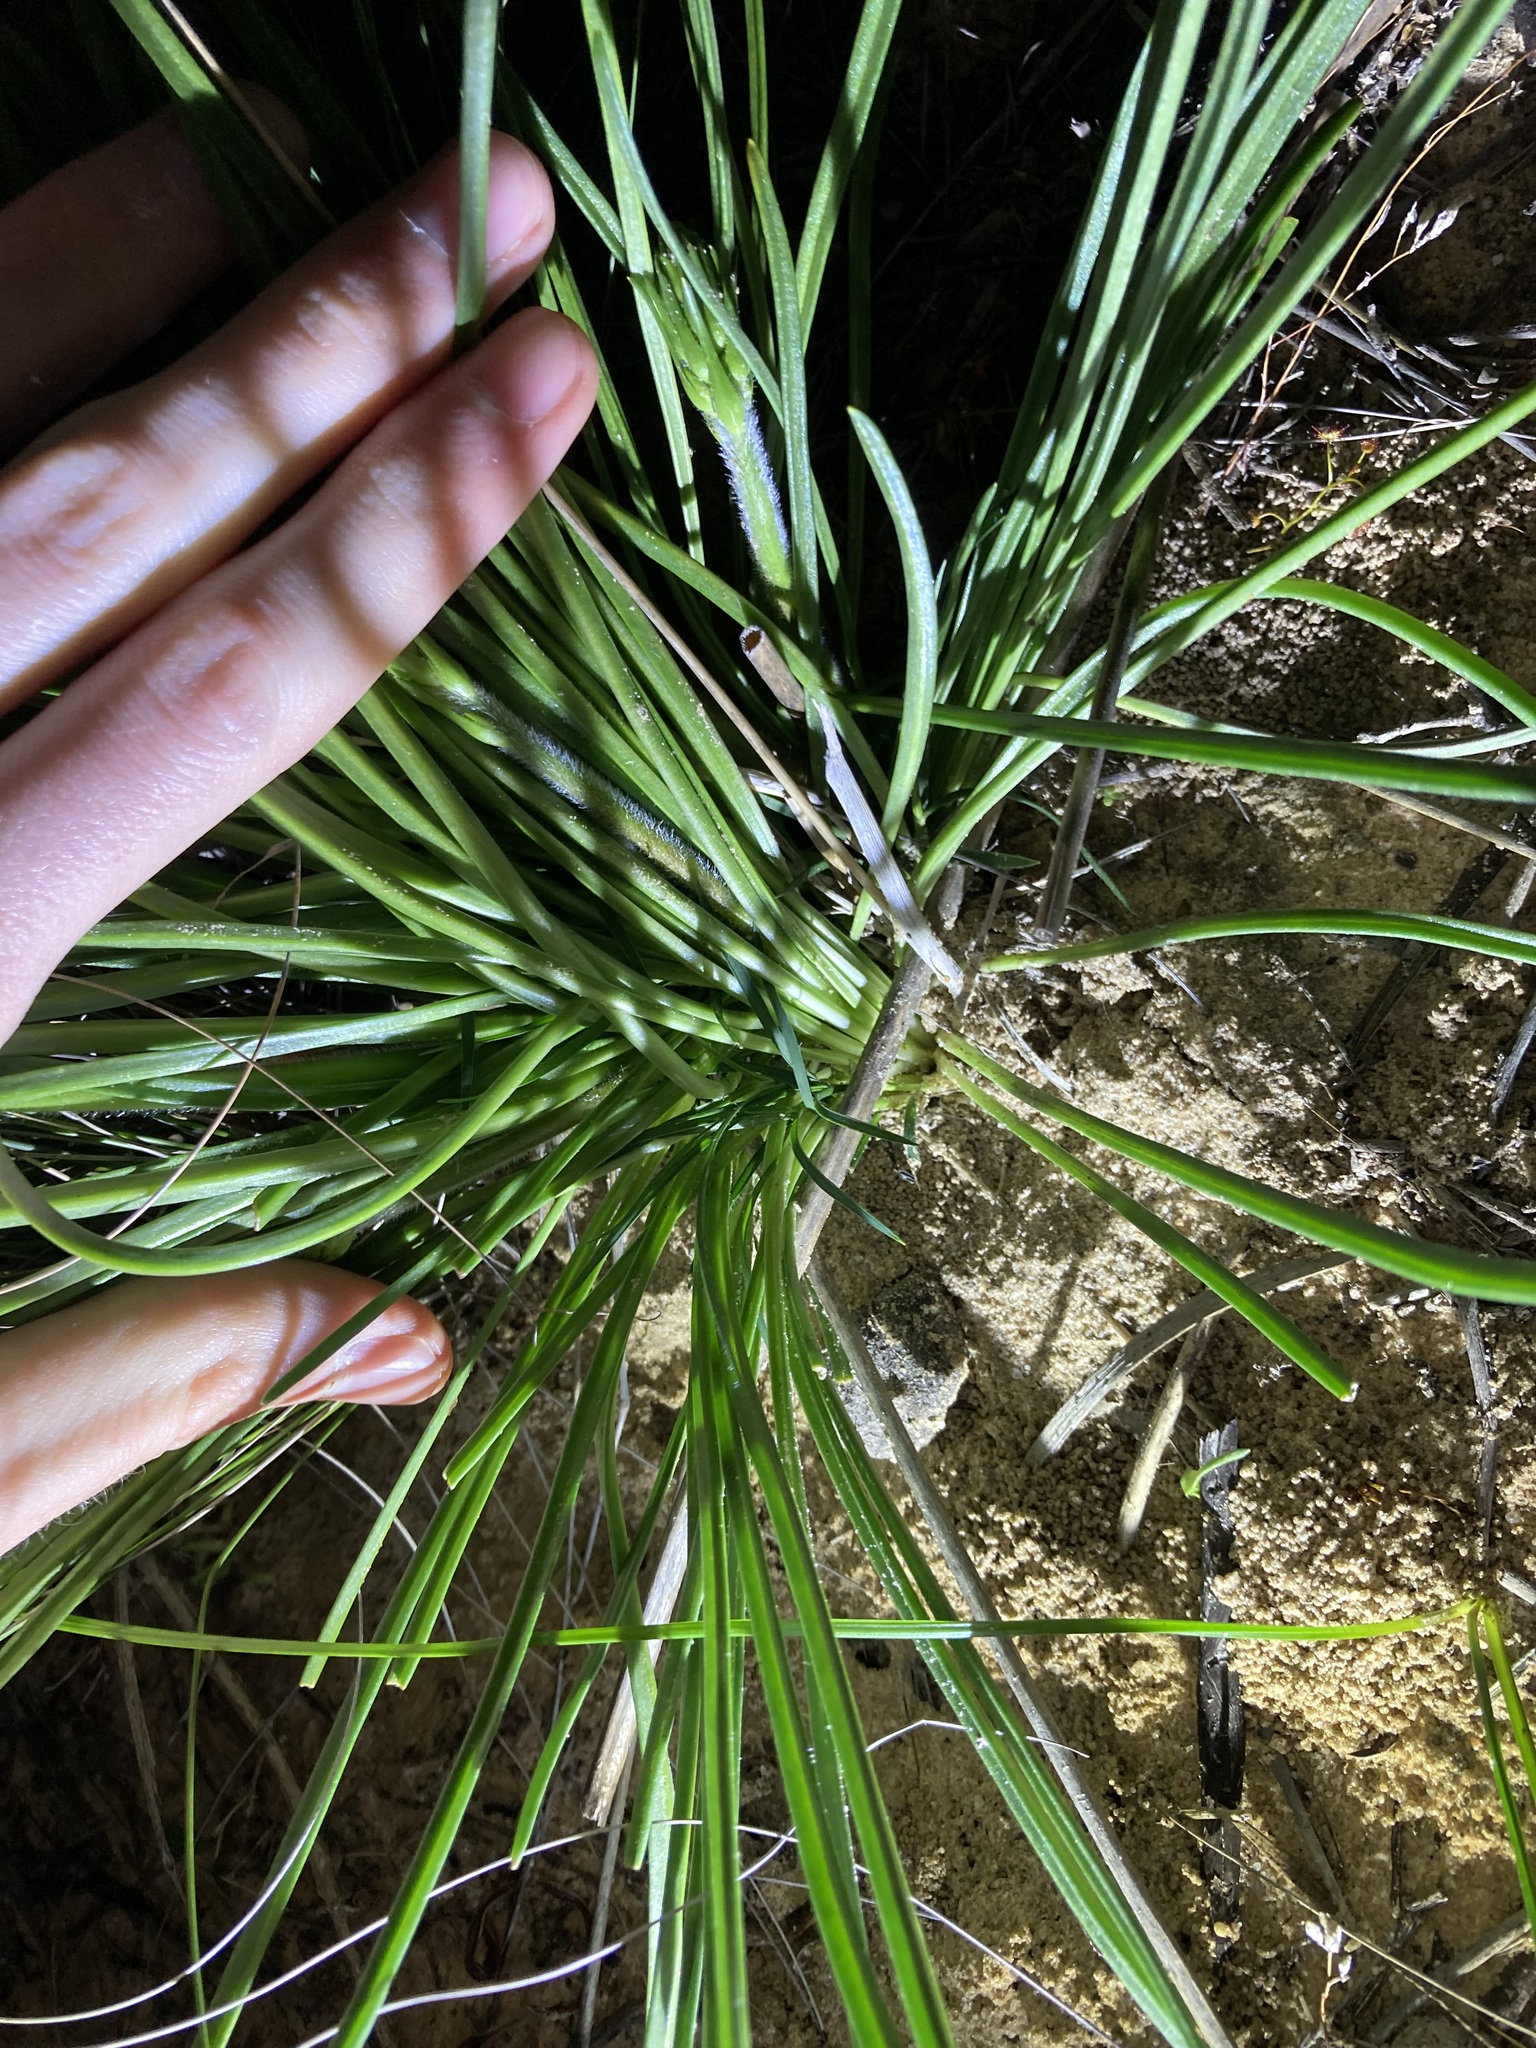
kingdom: Plantae
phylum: Tracheophyta
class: Magnoliopsida
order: Asterales
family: Stylidiaceae
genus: Stylidium
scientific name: Stylidium elongatum
